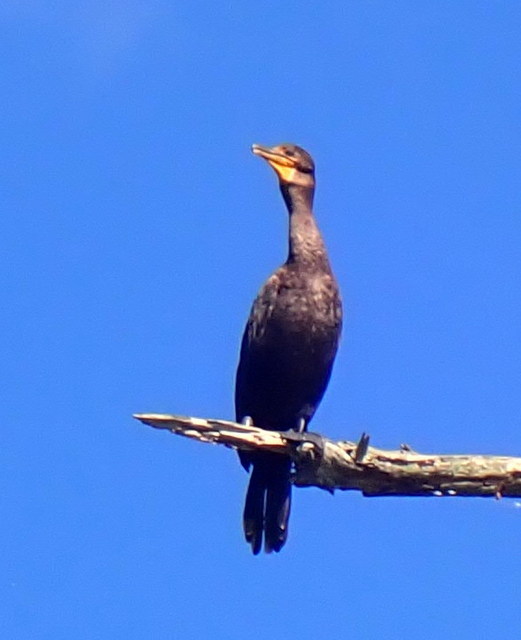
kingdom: Animalia
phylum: Chordata
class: Aves
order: Suliformes
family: Phalacrocoracidae
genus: Phalacrocorax
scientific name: Phalacrocorax auritus
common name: Double-crested cormorant
